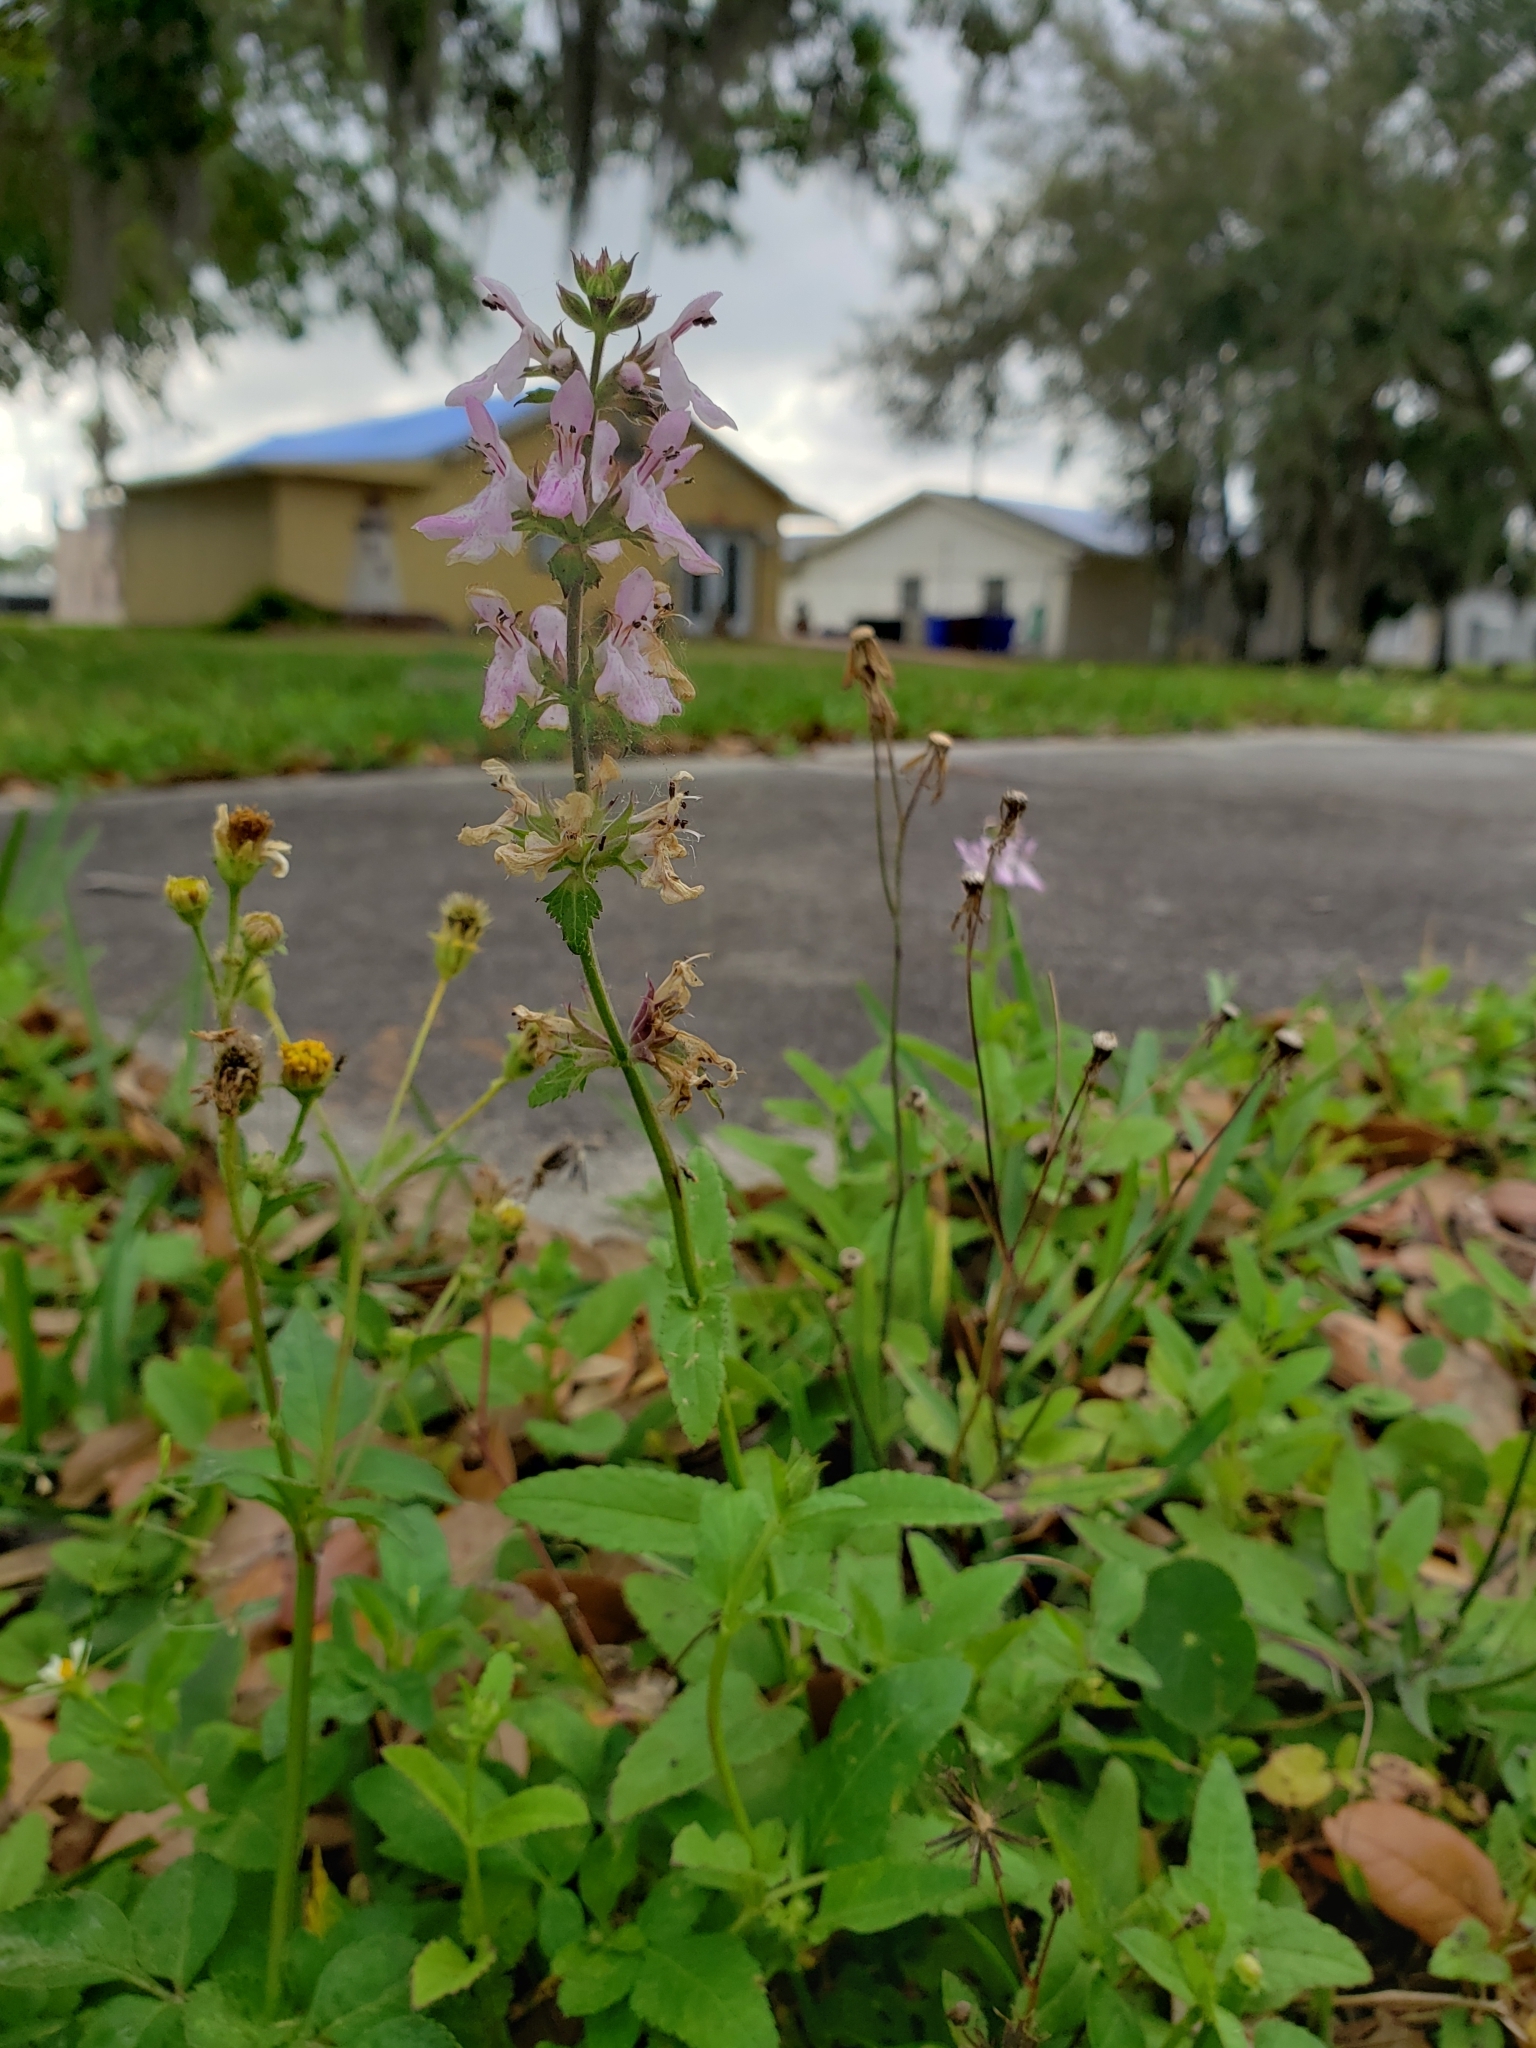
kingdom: Plantae
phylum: Tracheophyta
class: Magnoliopsida
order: Lamiales
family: Lamiaceae
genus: Stachys
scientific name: Stachys floridana
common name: Florida betony
